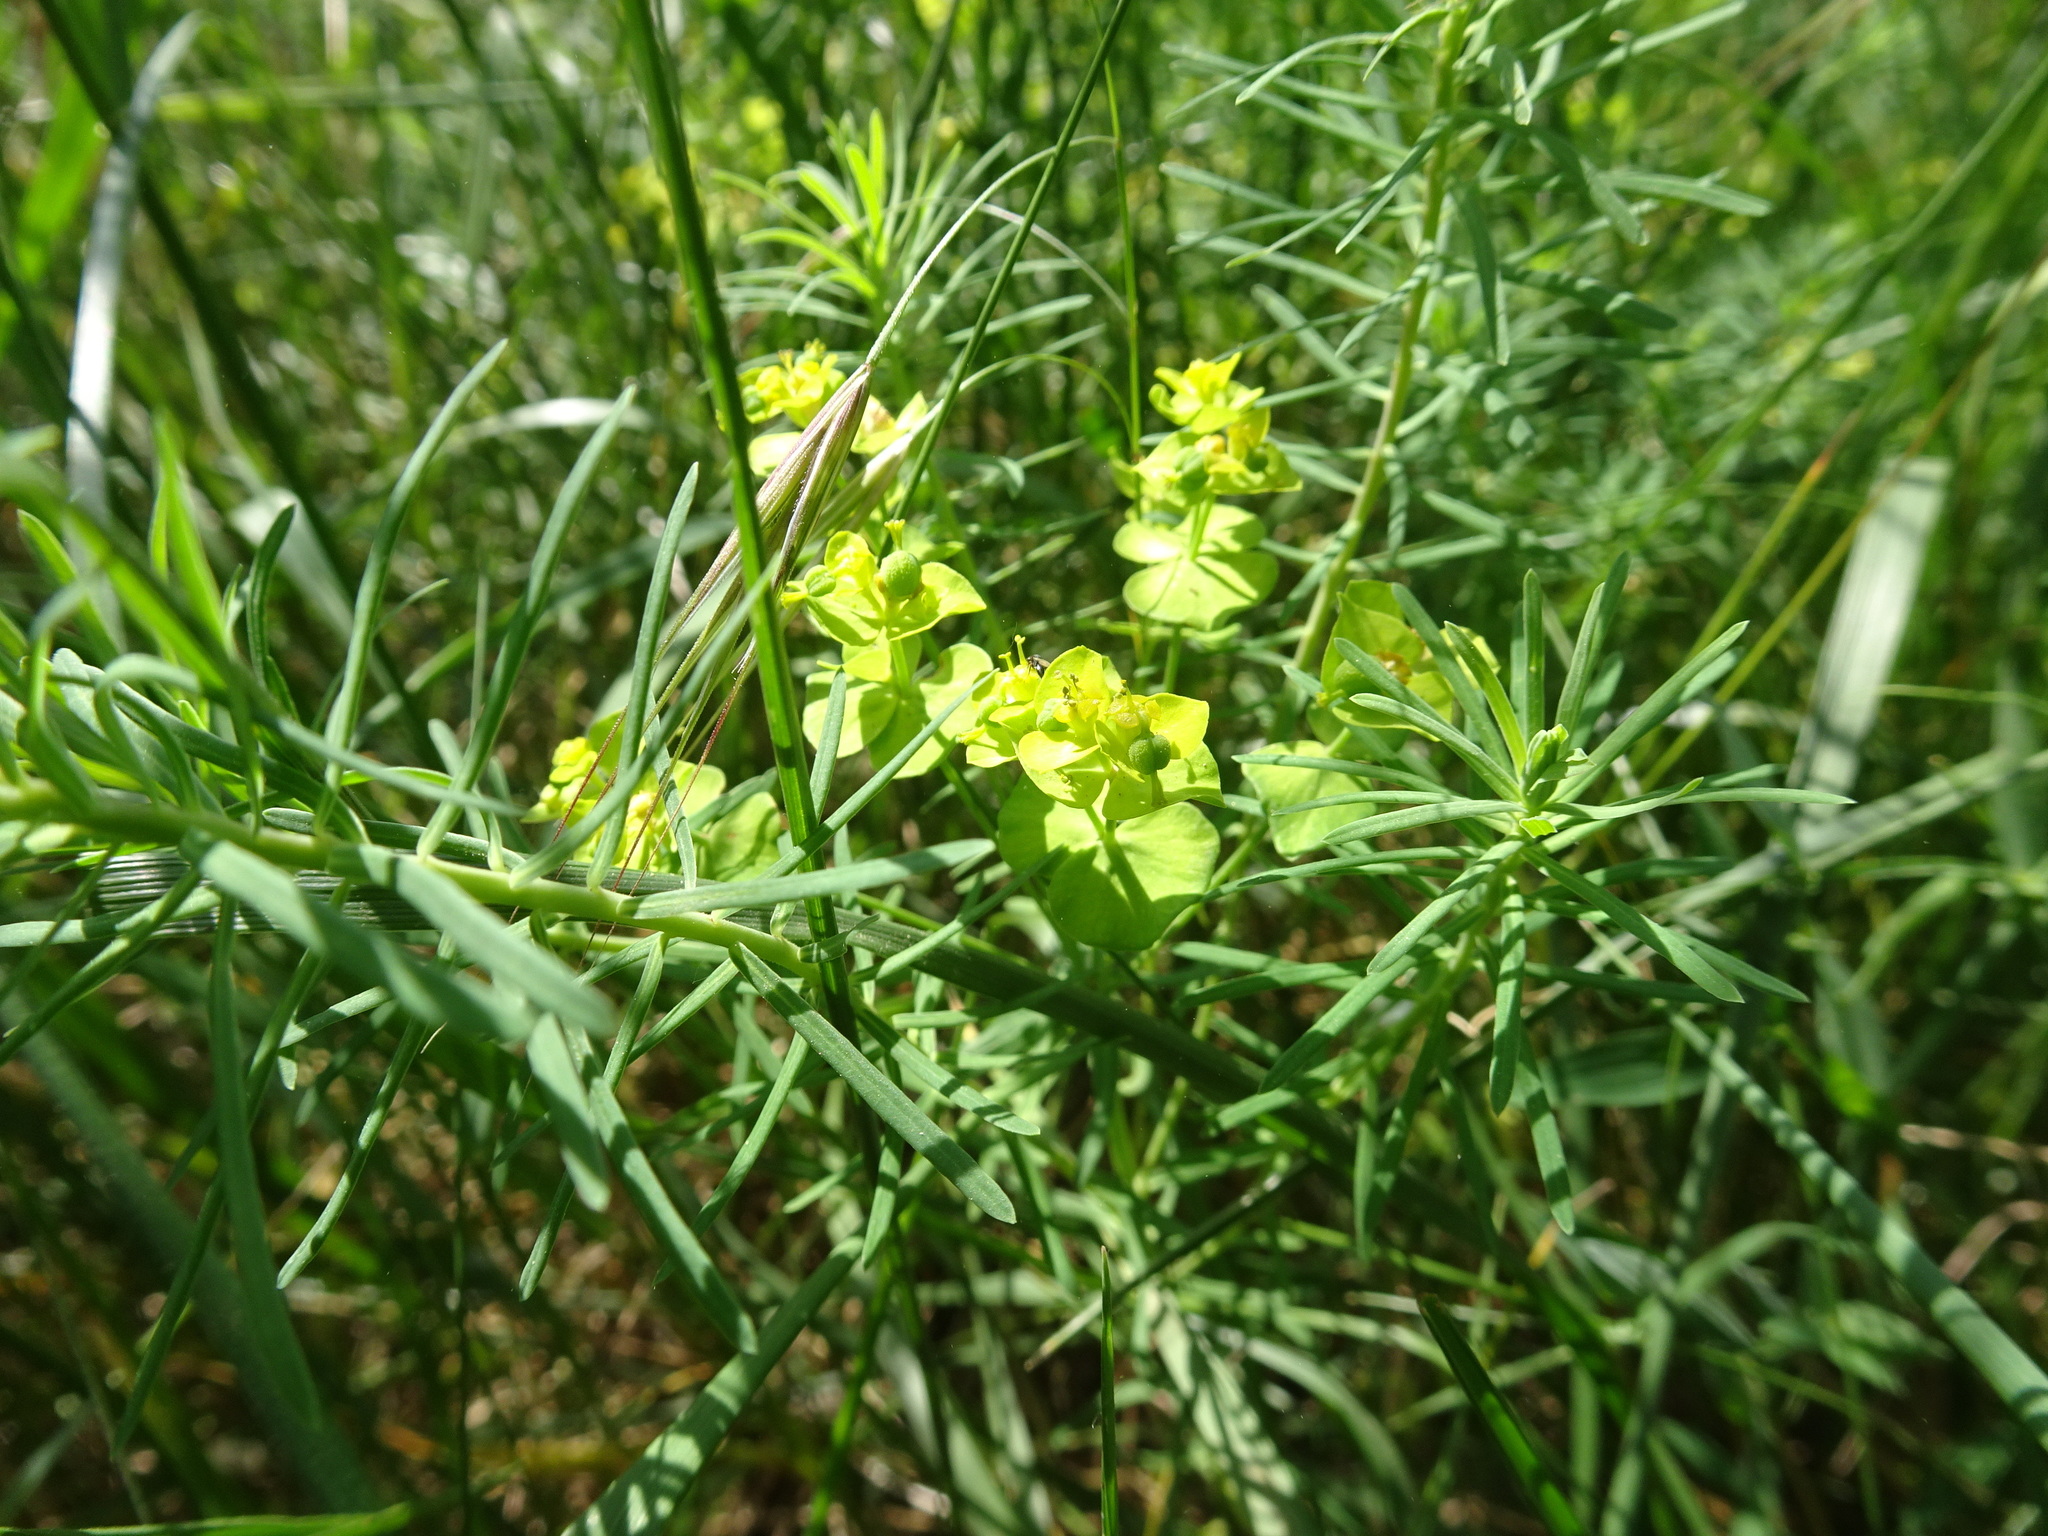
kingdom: Plantae
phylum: Tracheophyta
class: Magnoliopsida
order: Malpighiales
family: Euphorbiaceae
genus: Euphorbia
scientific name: Euphorbia cyparissias
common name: Cypress spurge
